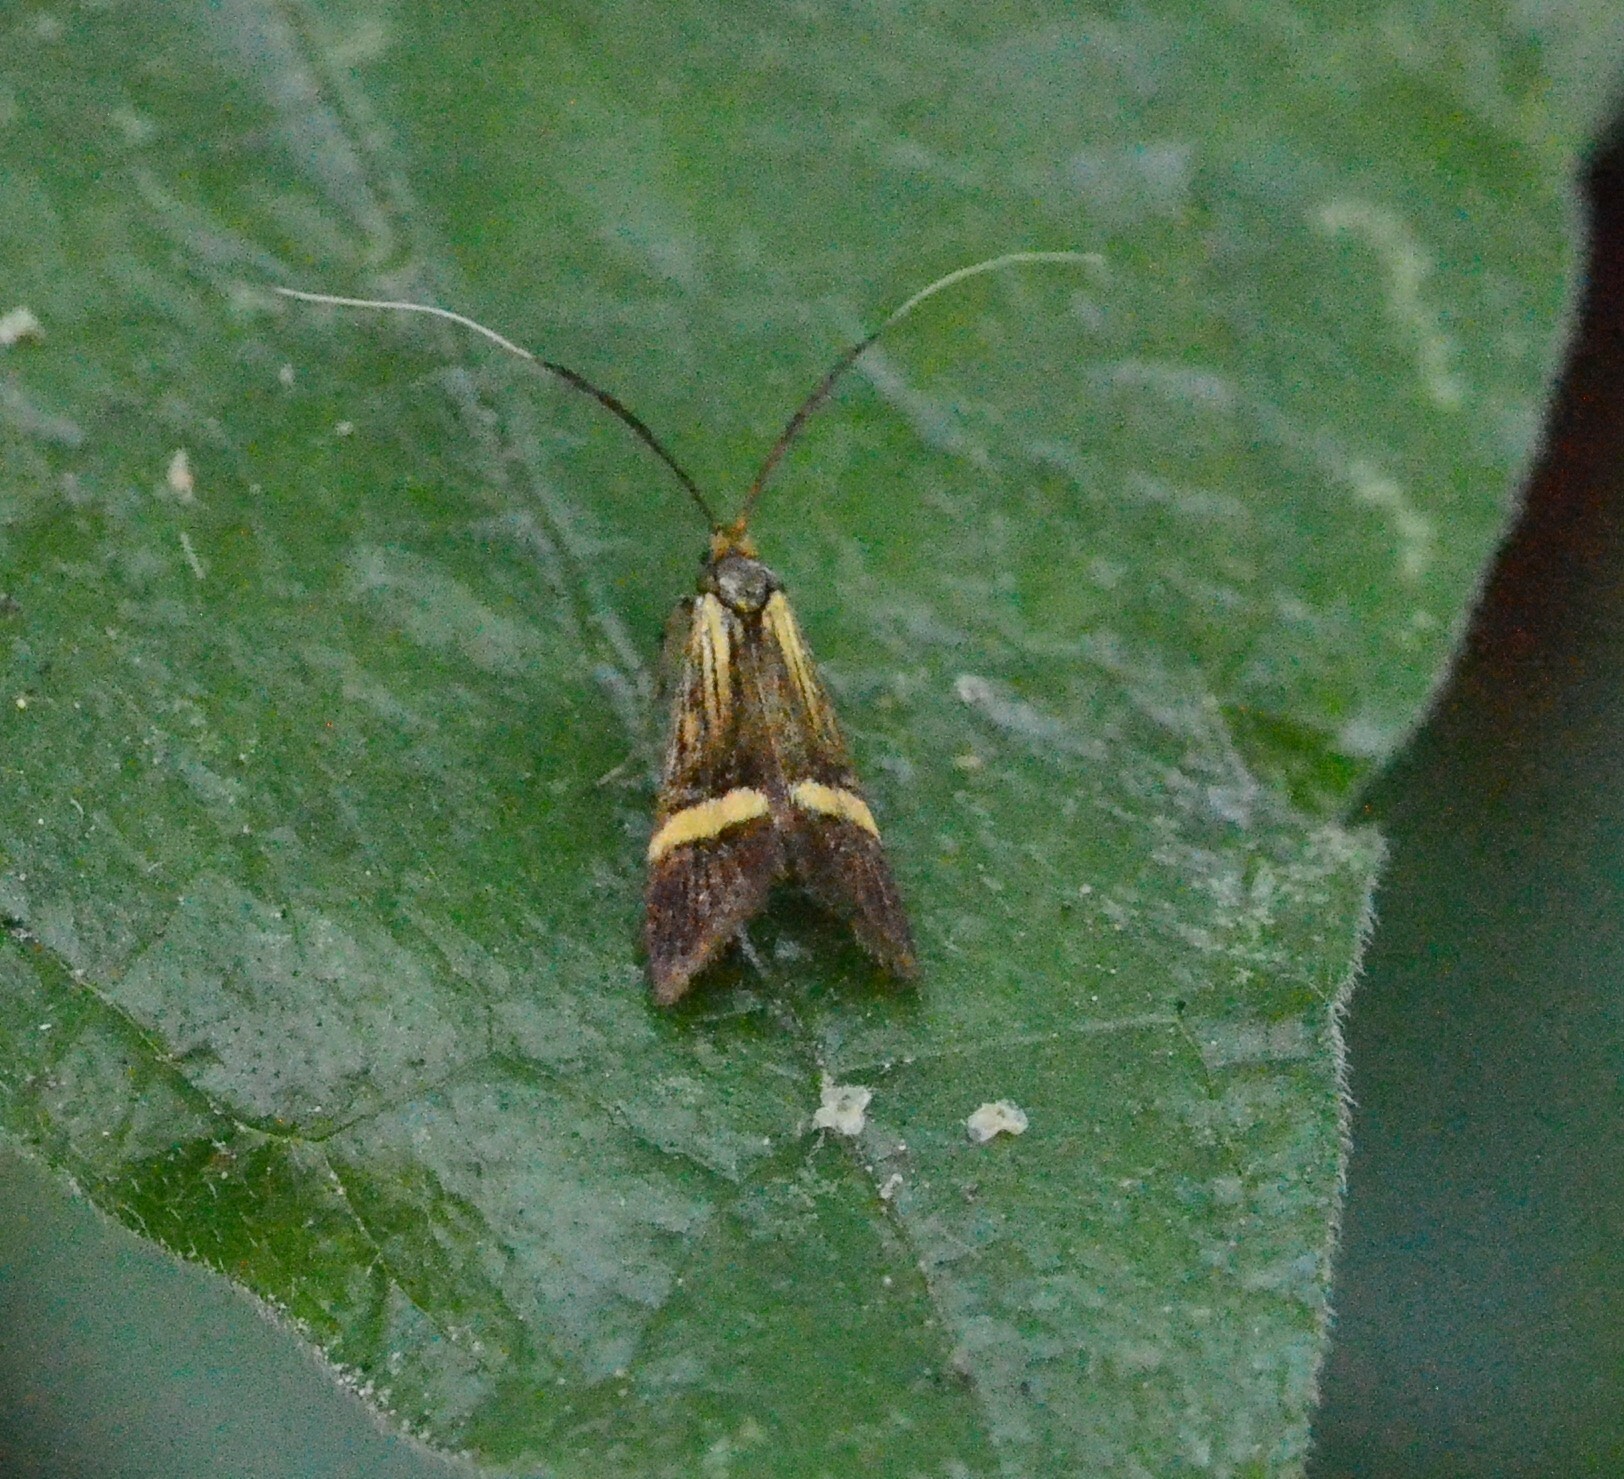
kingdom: Animalia
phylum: Arthropoda
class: Insecta
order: Lepidoptera
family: Adelidae
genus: Nemophora
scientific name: Nemophora
